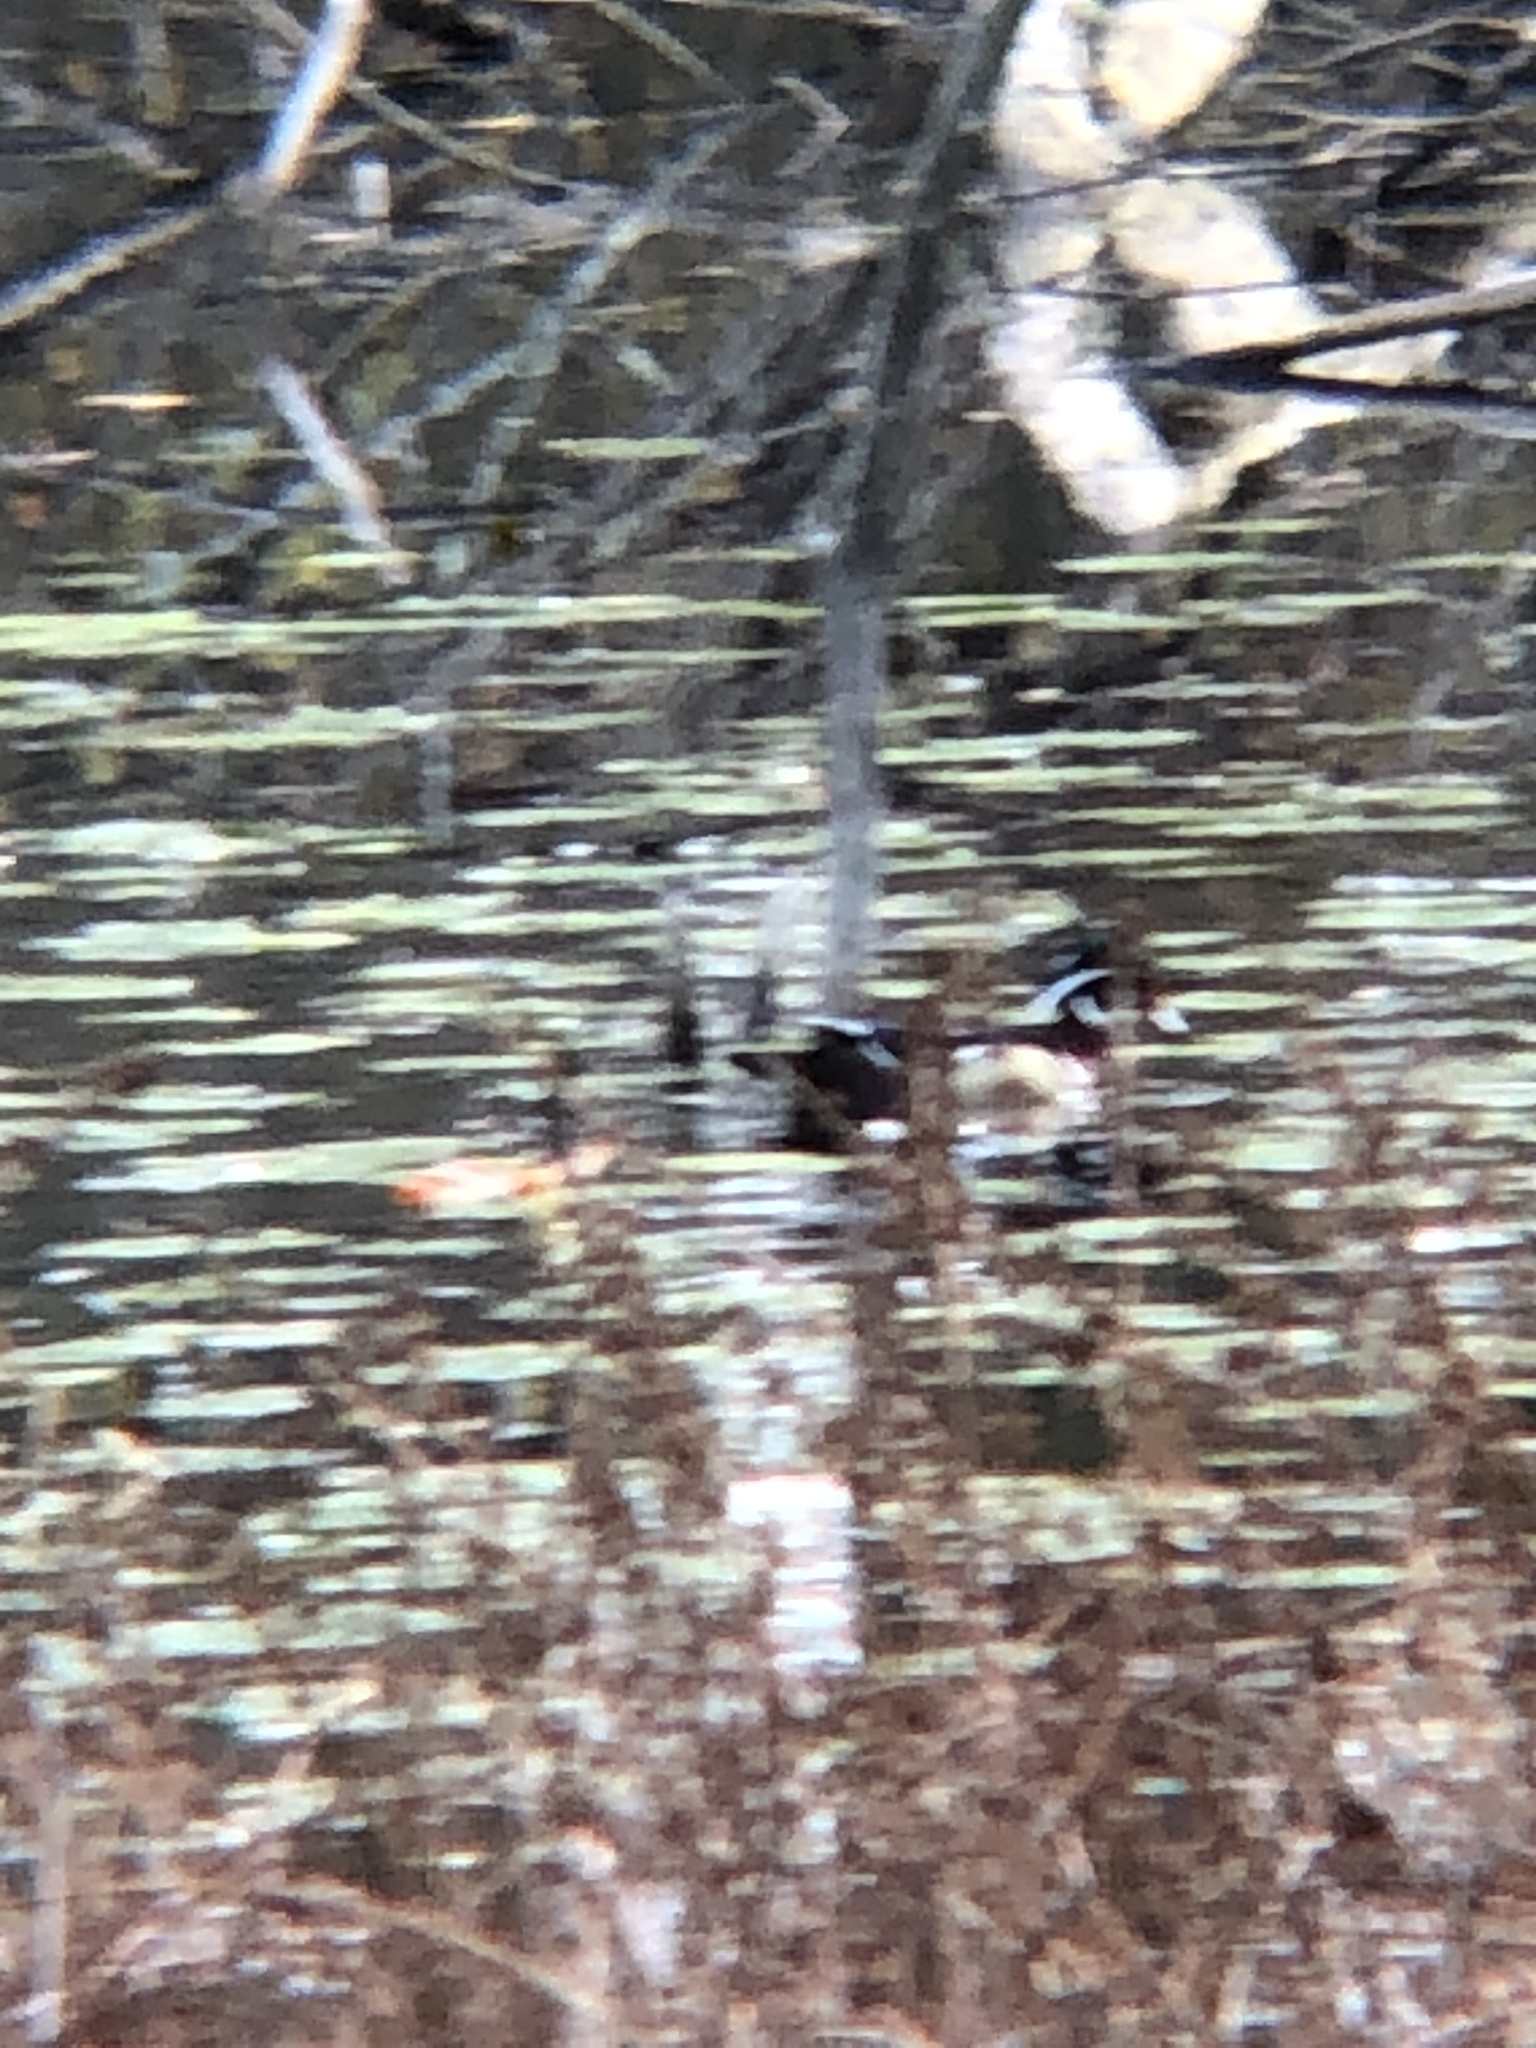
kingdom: Animalia
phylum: Chordata
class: Aves
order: Anseriformes
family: Anatidae
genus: Aix
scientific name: Aix sponsa
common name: Wood duck
